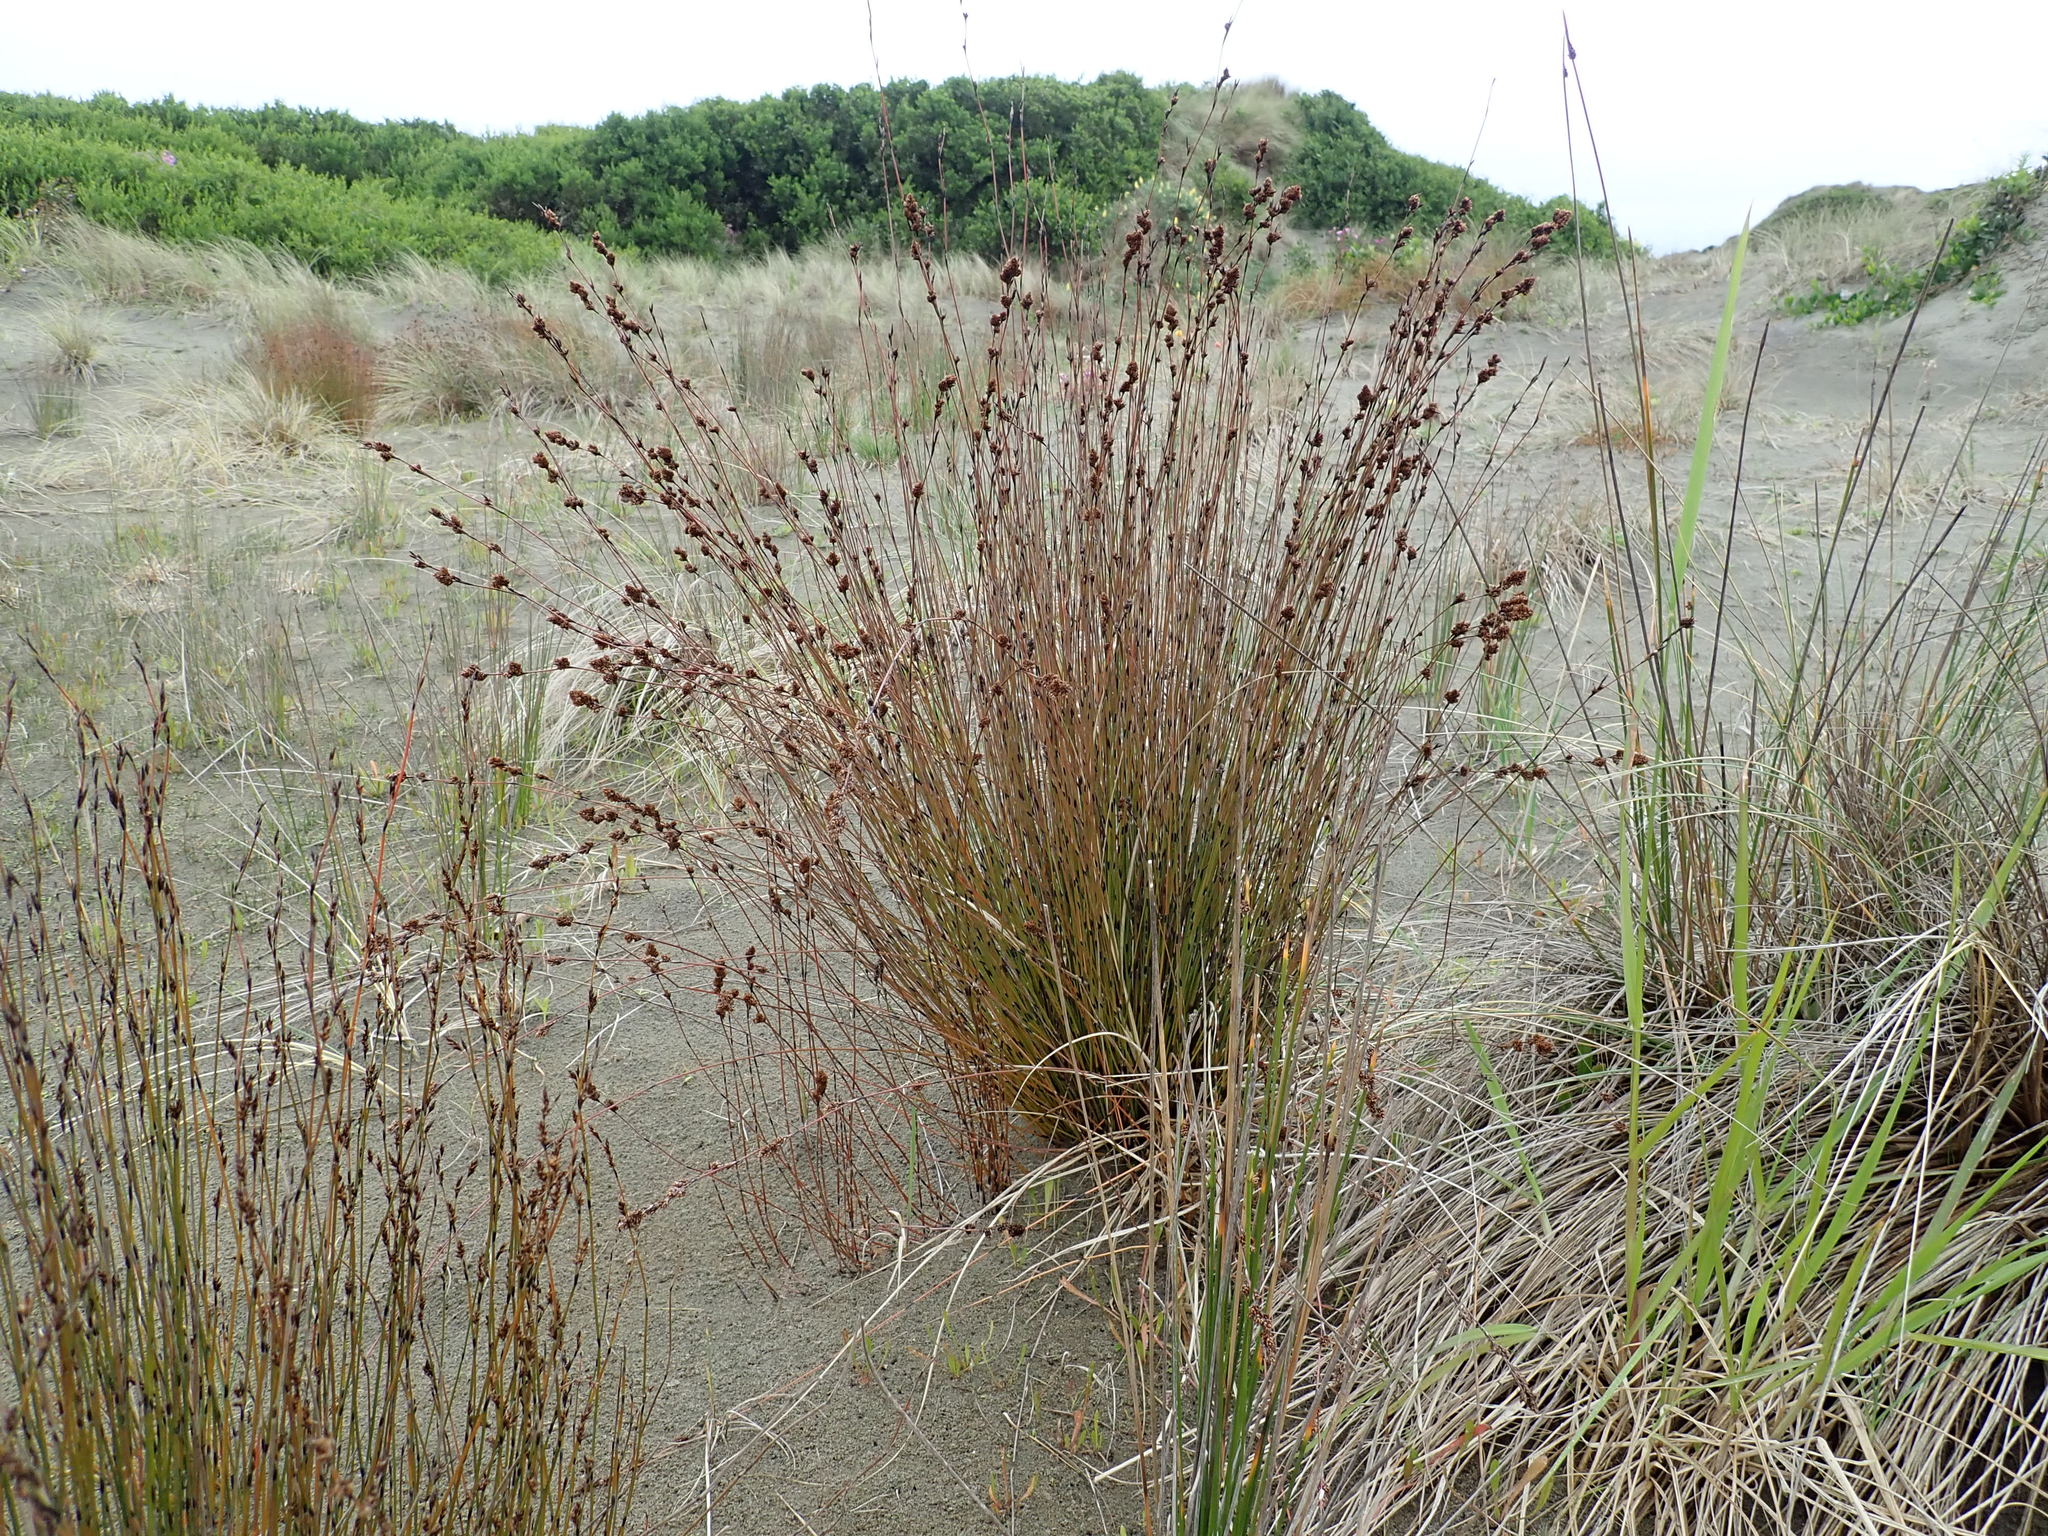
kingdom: Plantae
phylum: Tracheophyta
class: Liliopsida
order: Poales
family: Restionaceae
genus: Apodasmia
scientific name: Apodasmia similis
